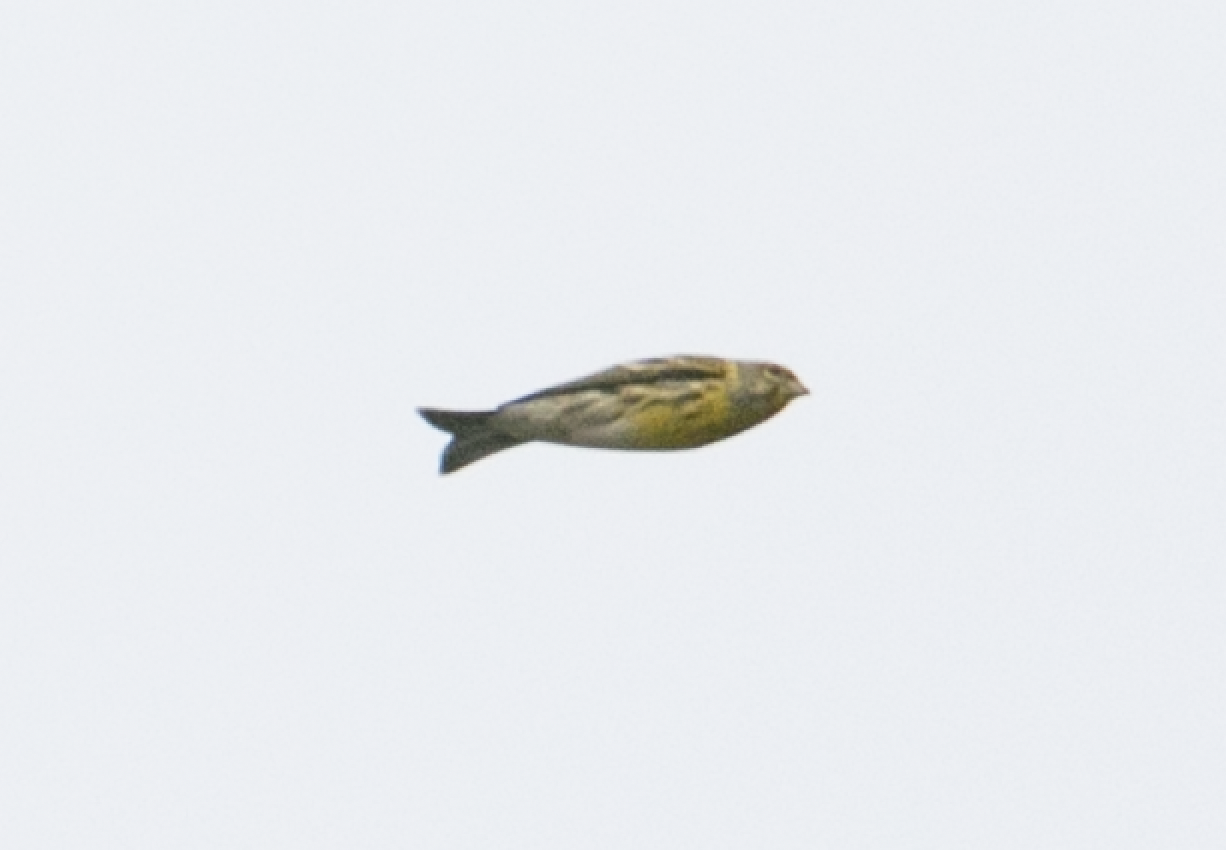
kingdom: Animalia
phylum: Chordata
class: Aves
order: Passeriformes
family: Fringillidae
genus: Serinus
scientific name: Serinus serinus
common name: European serin
